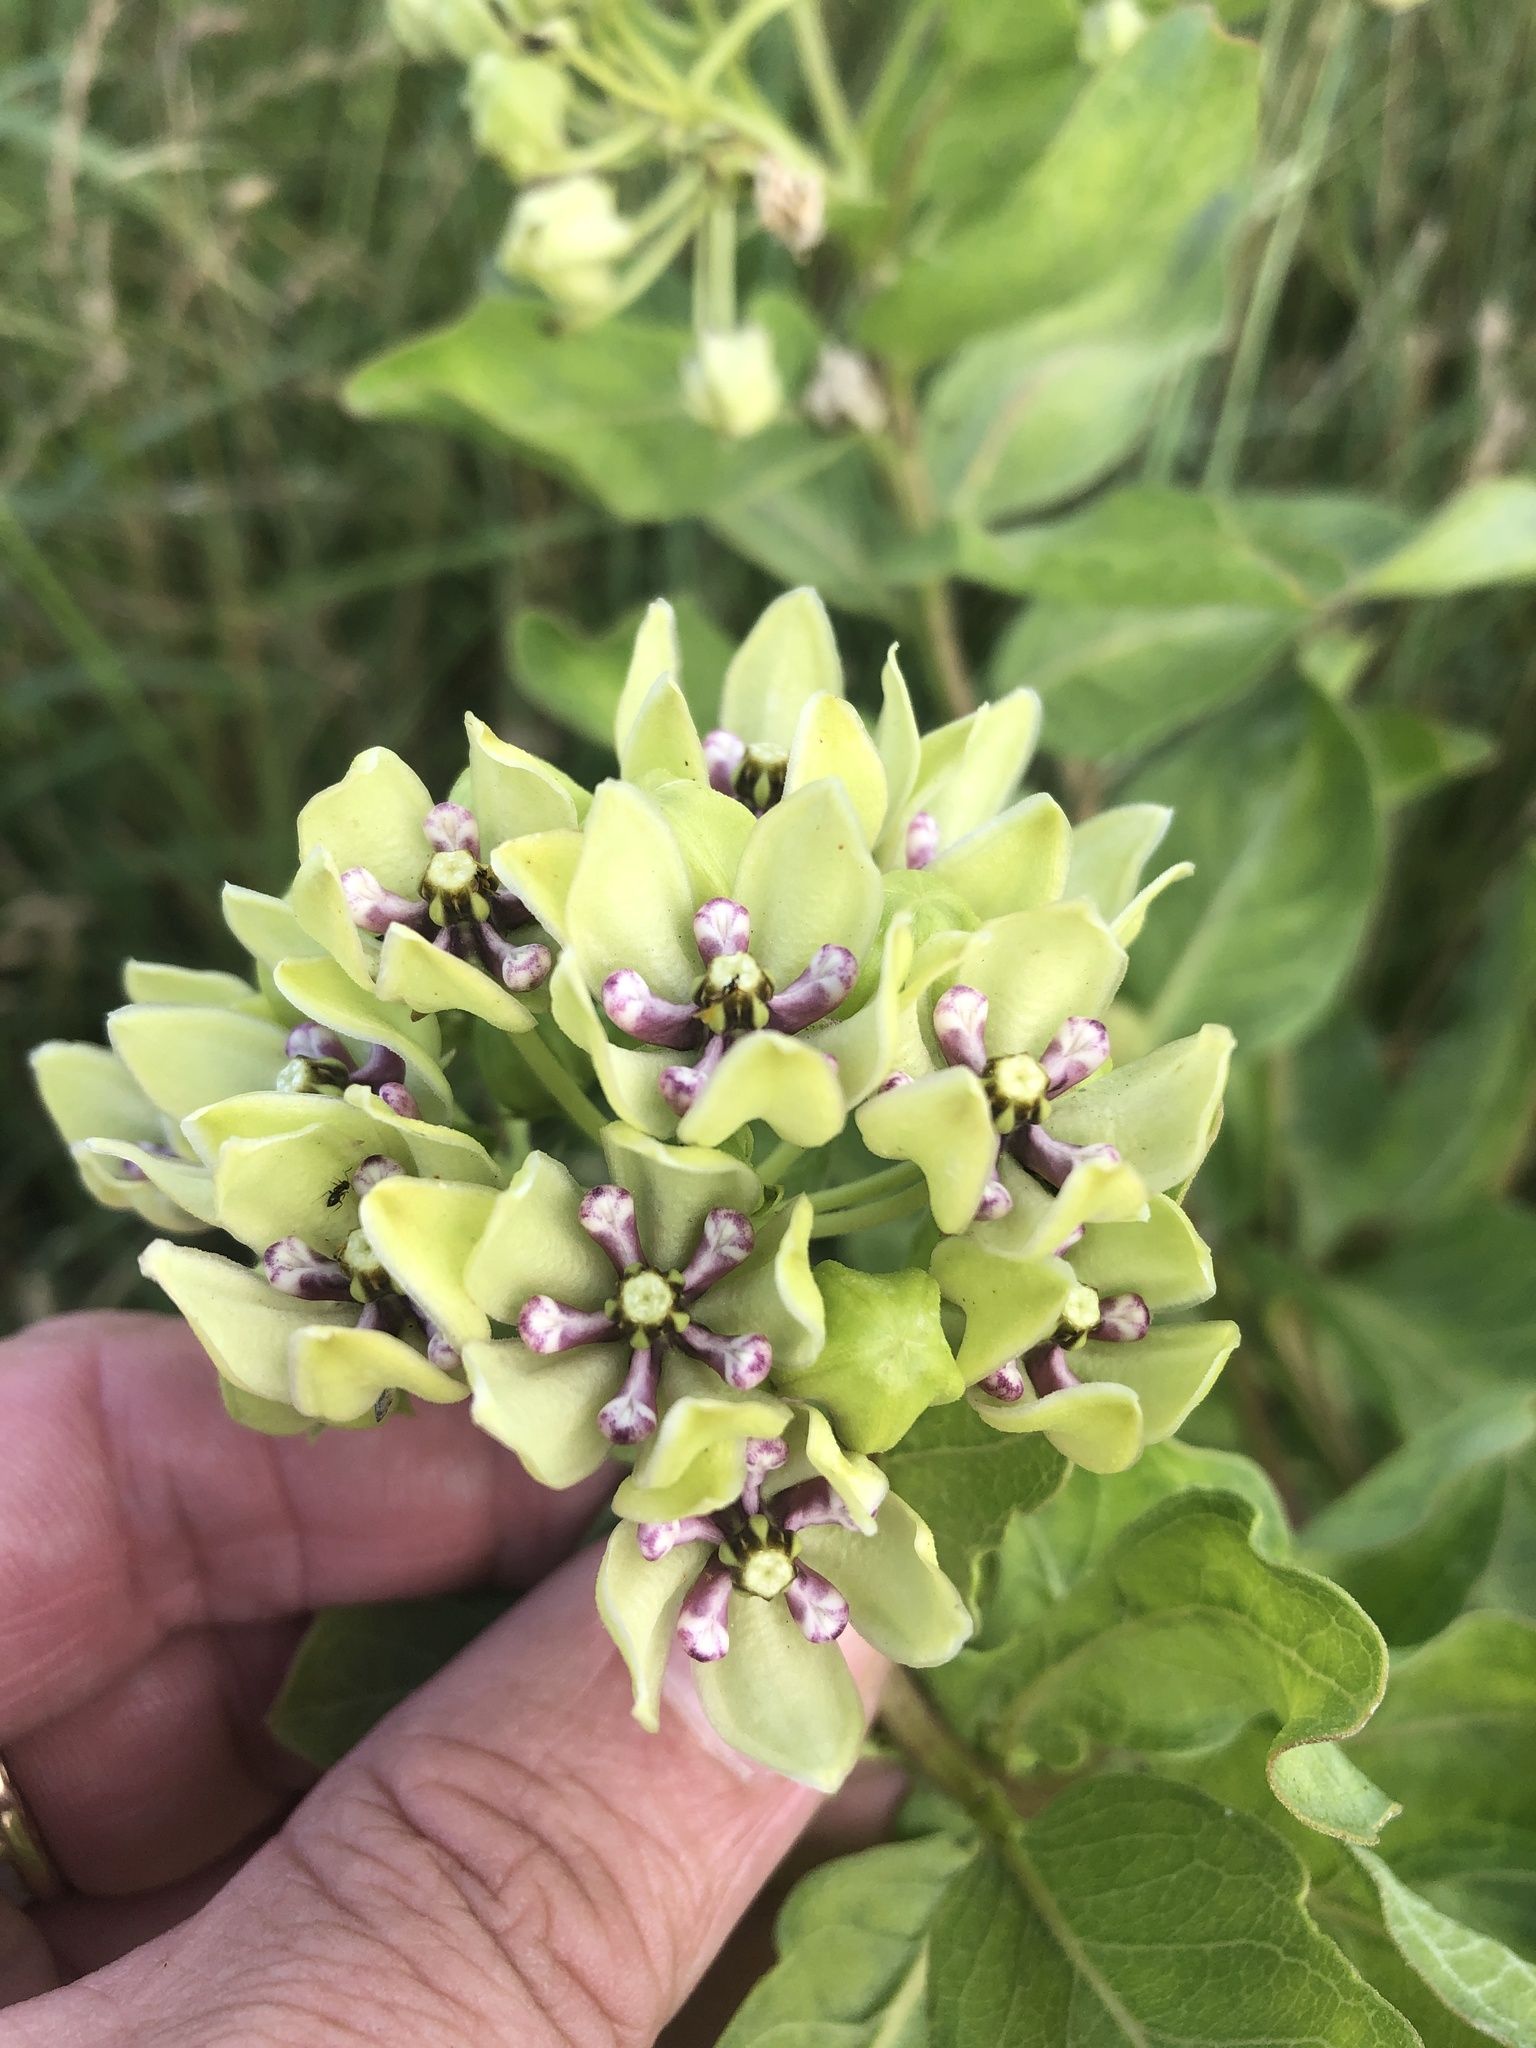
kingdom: Plantae
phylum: Tracheophyta
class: Magnoliopsida
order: Gentianales
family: Apocynaceae
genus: Asclepias
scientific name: Asclepias viridis
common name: Antelope-horns
